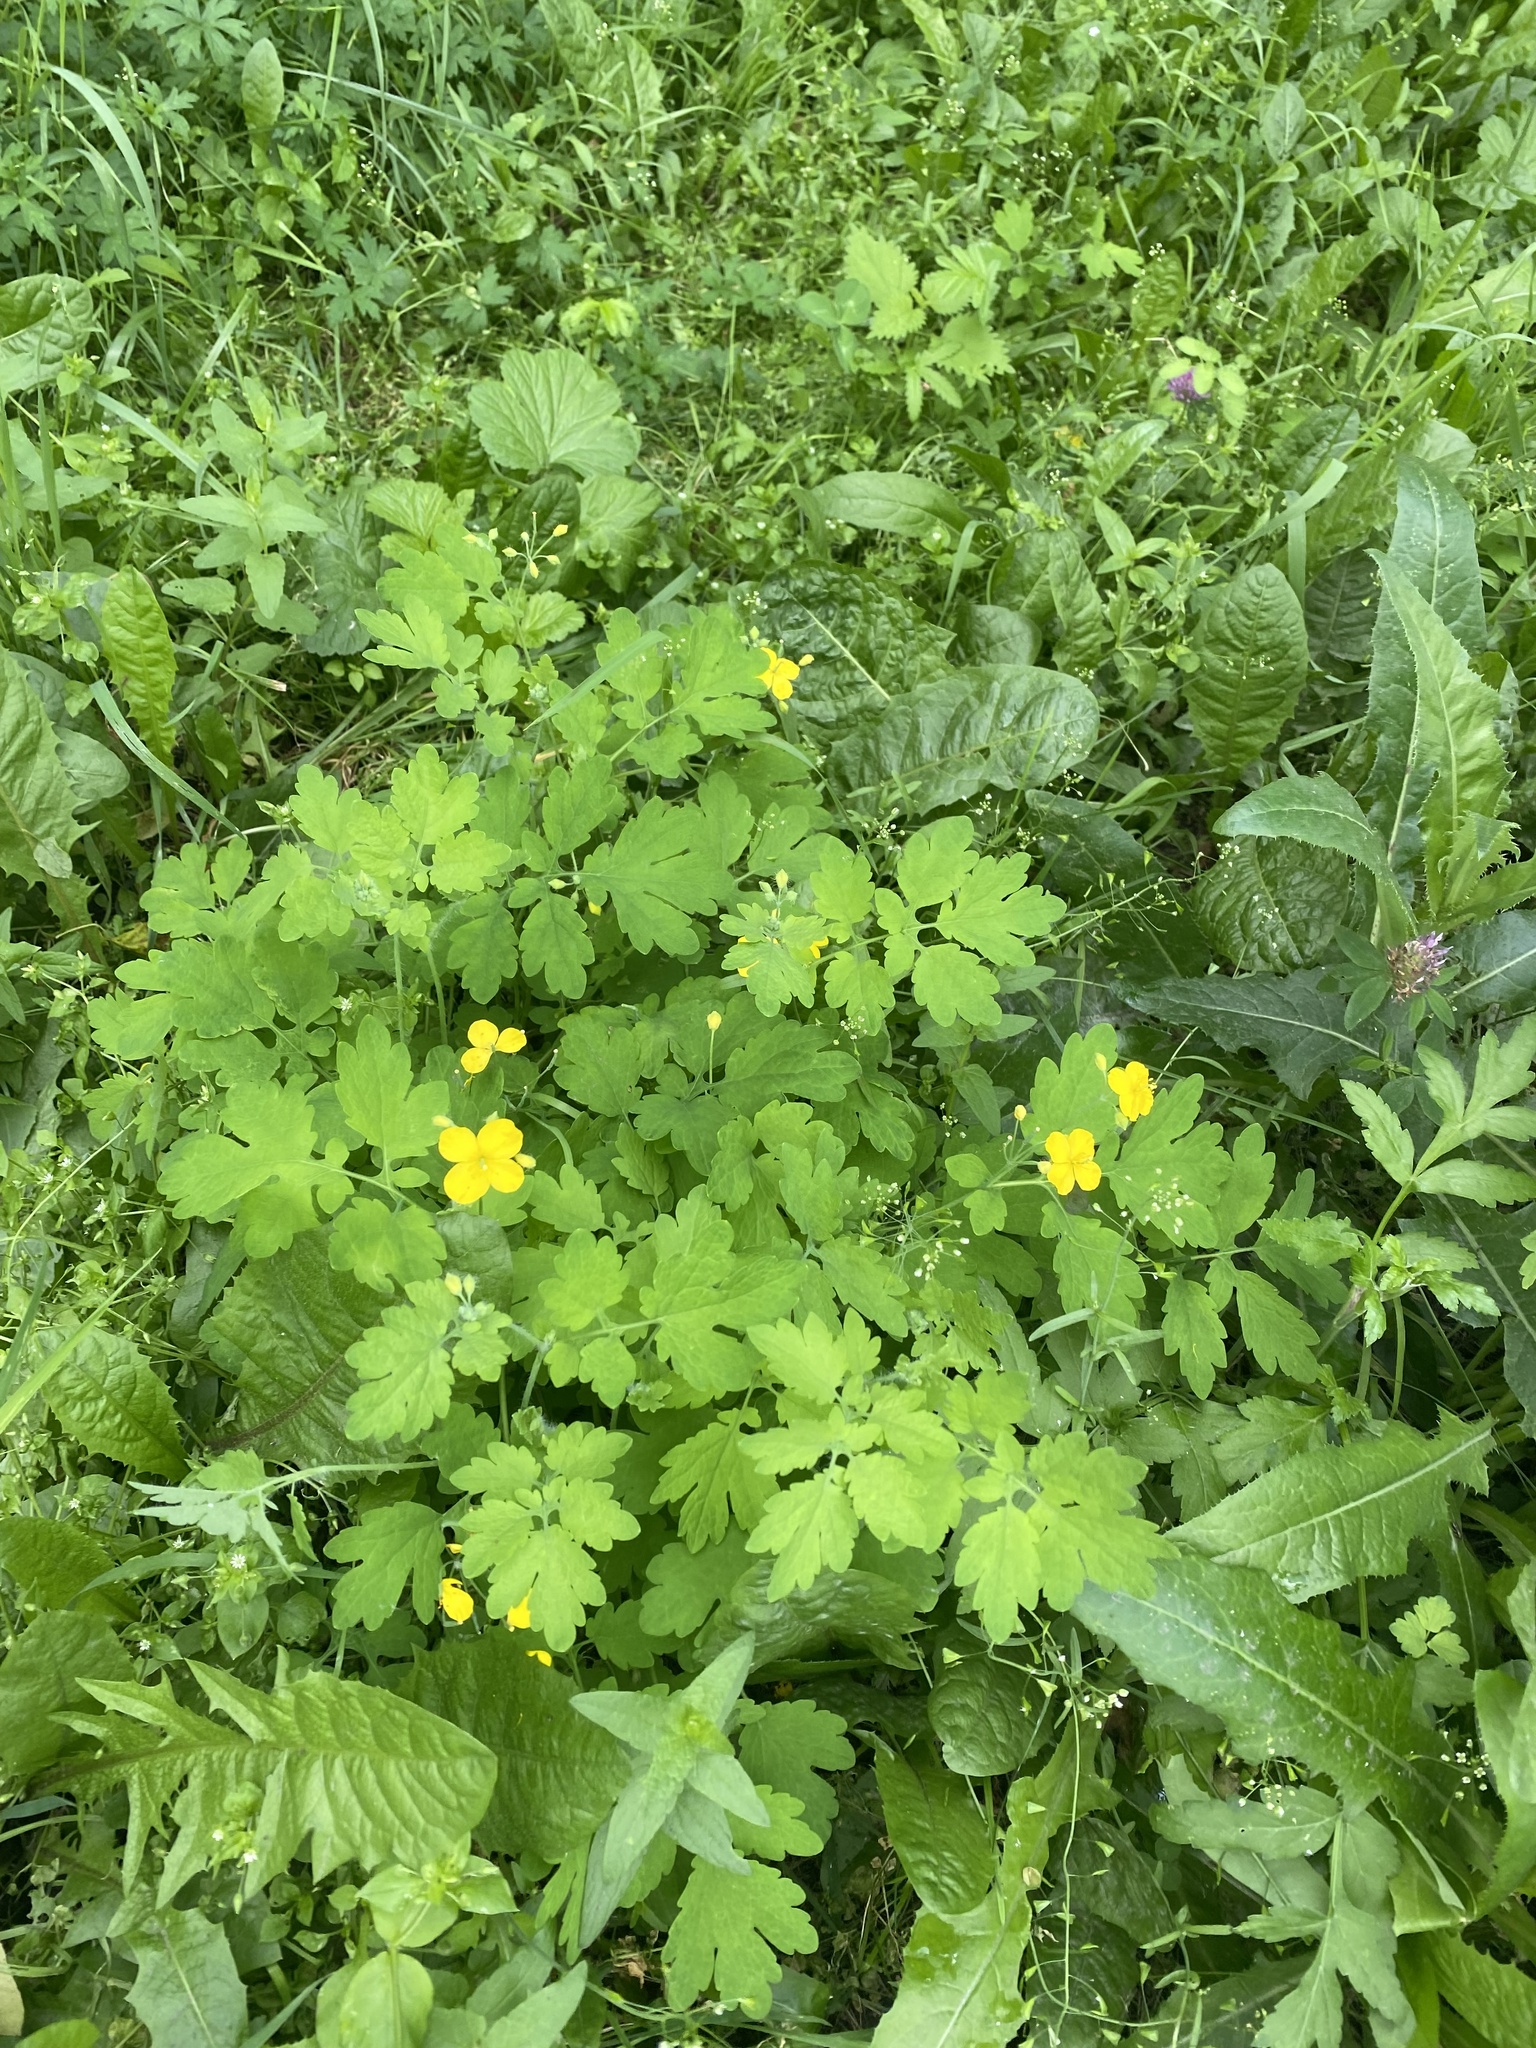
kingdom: Plantae
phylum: Tracheophyta
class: Magnoliopsida
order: Ranunculales
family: Papaveraceae
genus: Chelidonium
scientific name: Chelidonium majus
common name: Greater celandine
